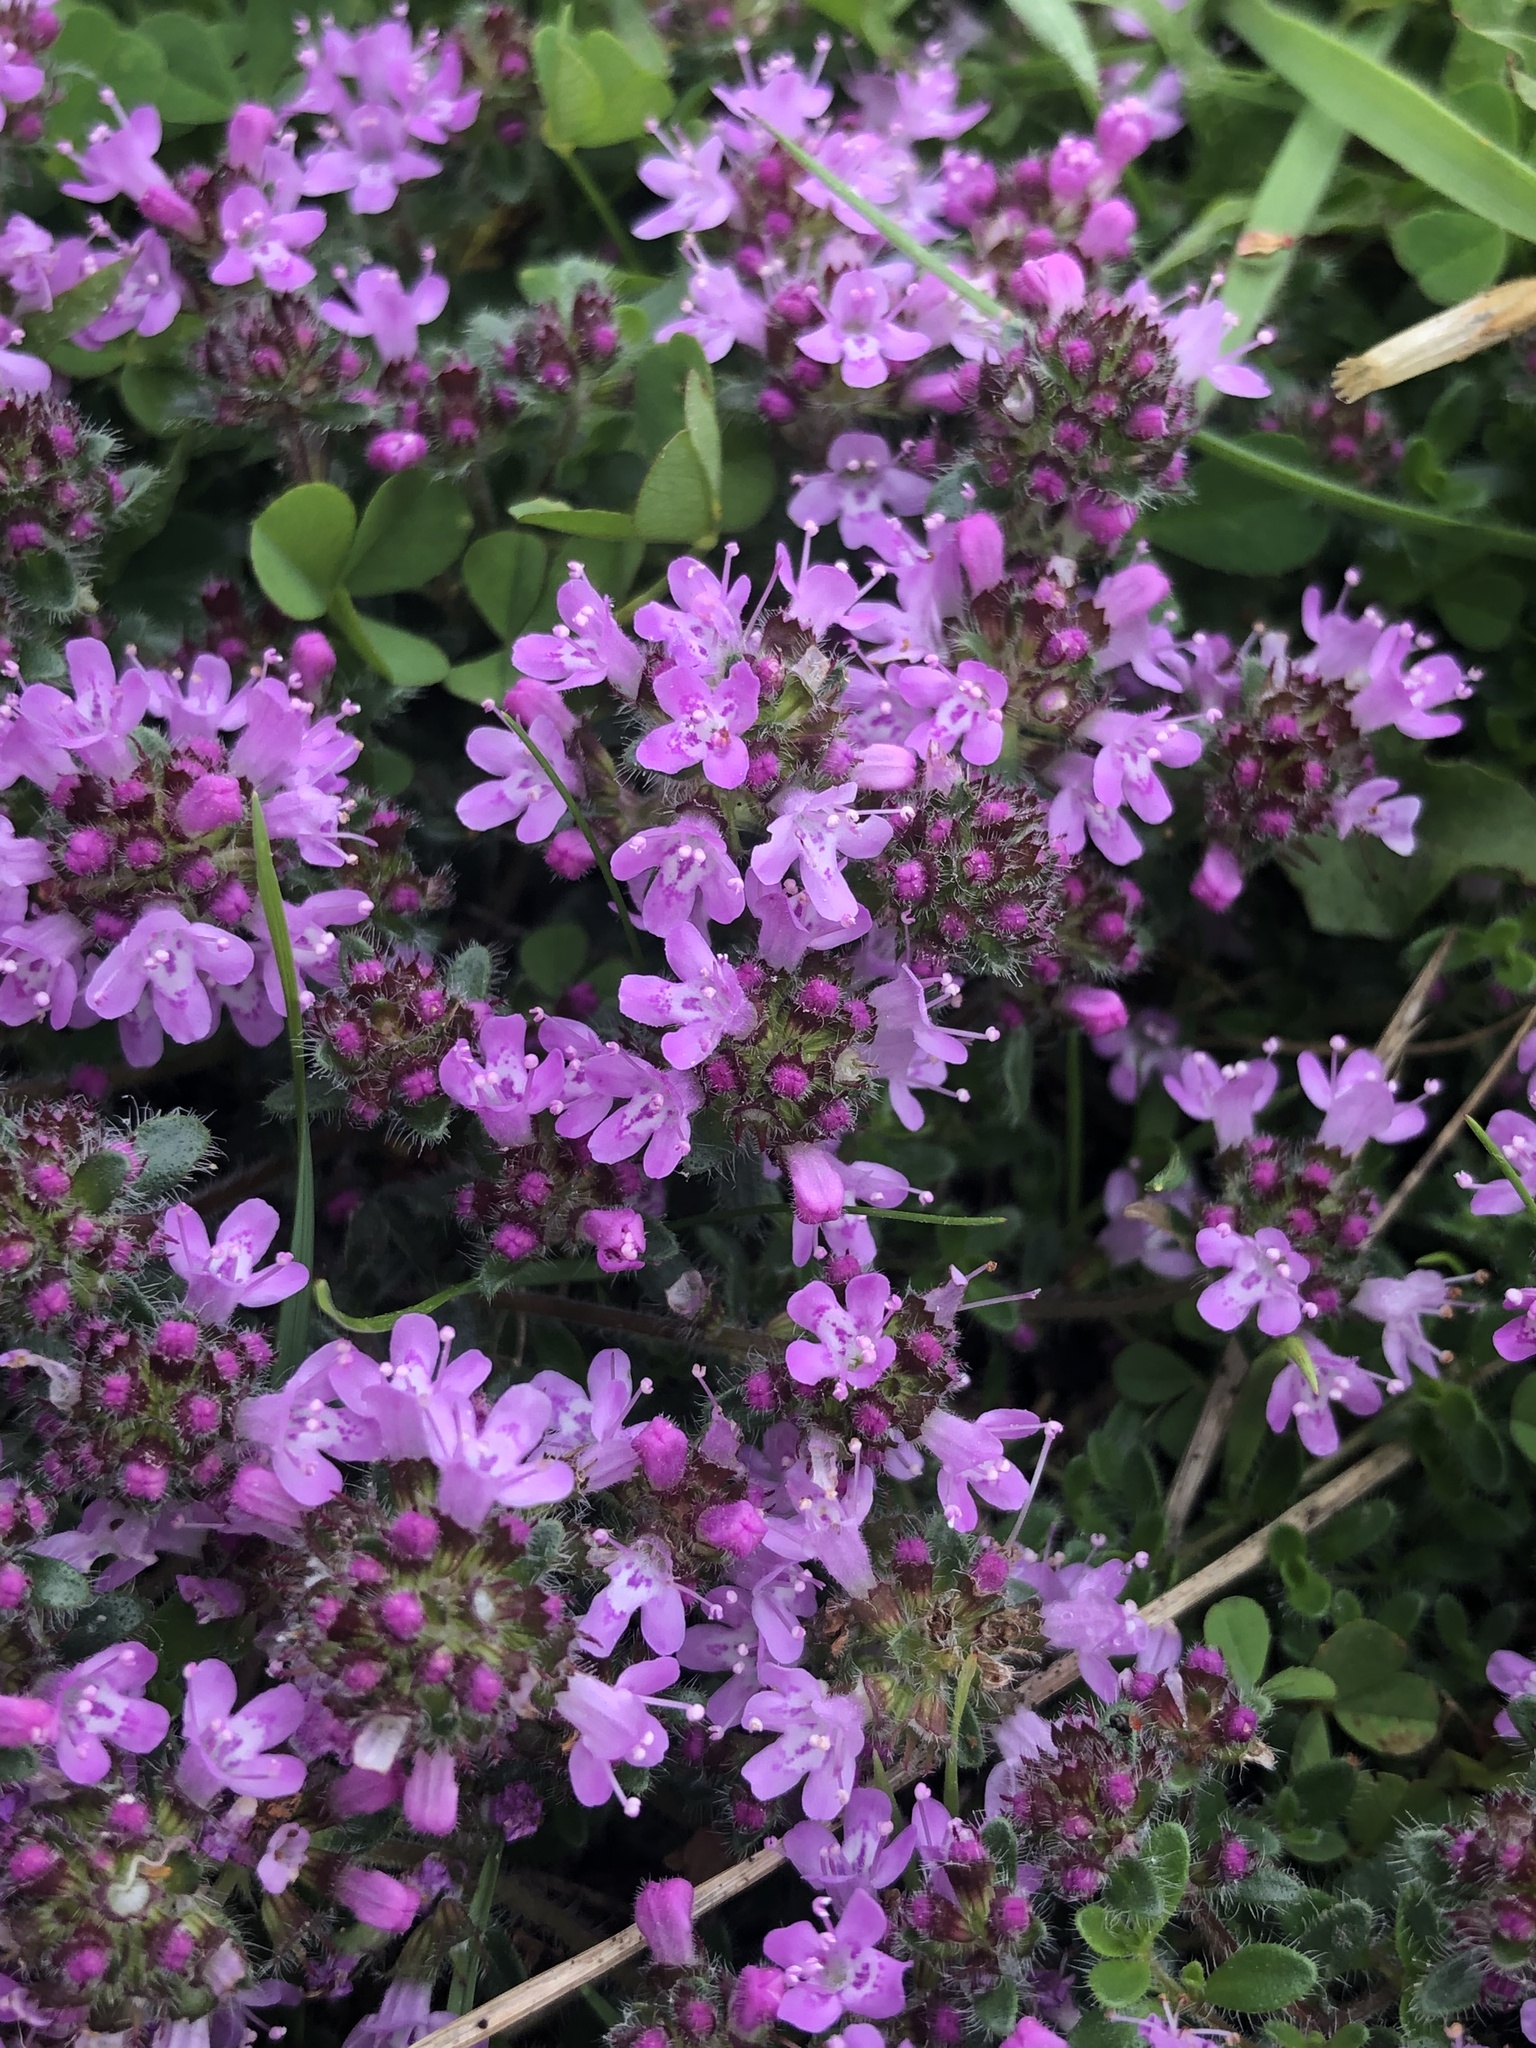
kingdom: Plantae
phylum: Tracheophyta
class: Magnoliopsida
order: Lamiales
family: Lamiaceae
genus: Thymus
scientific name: Thymus praecox
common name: Wild thyme
